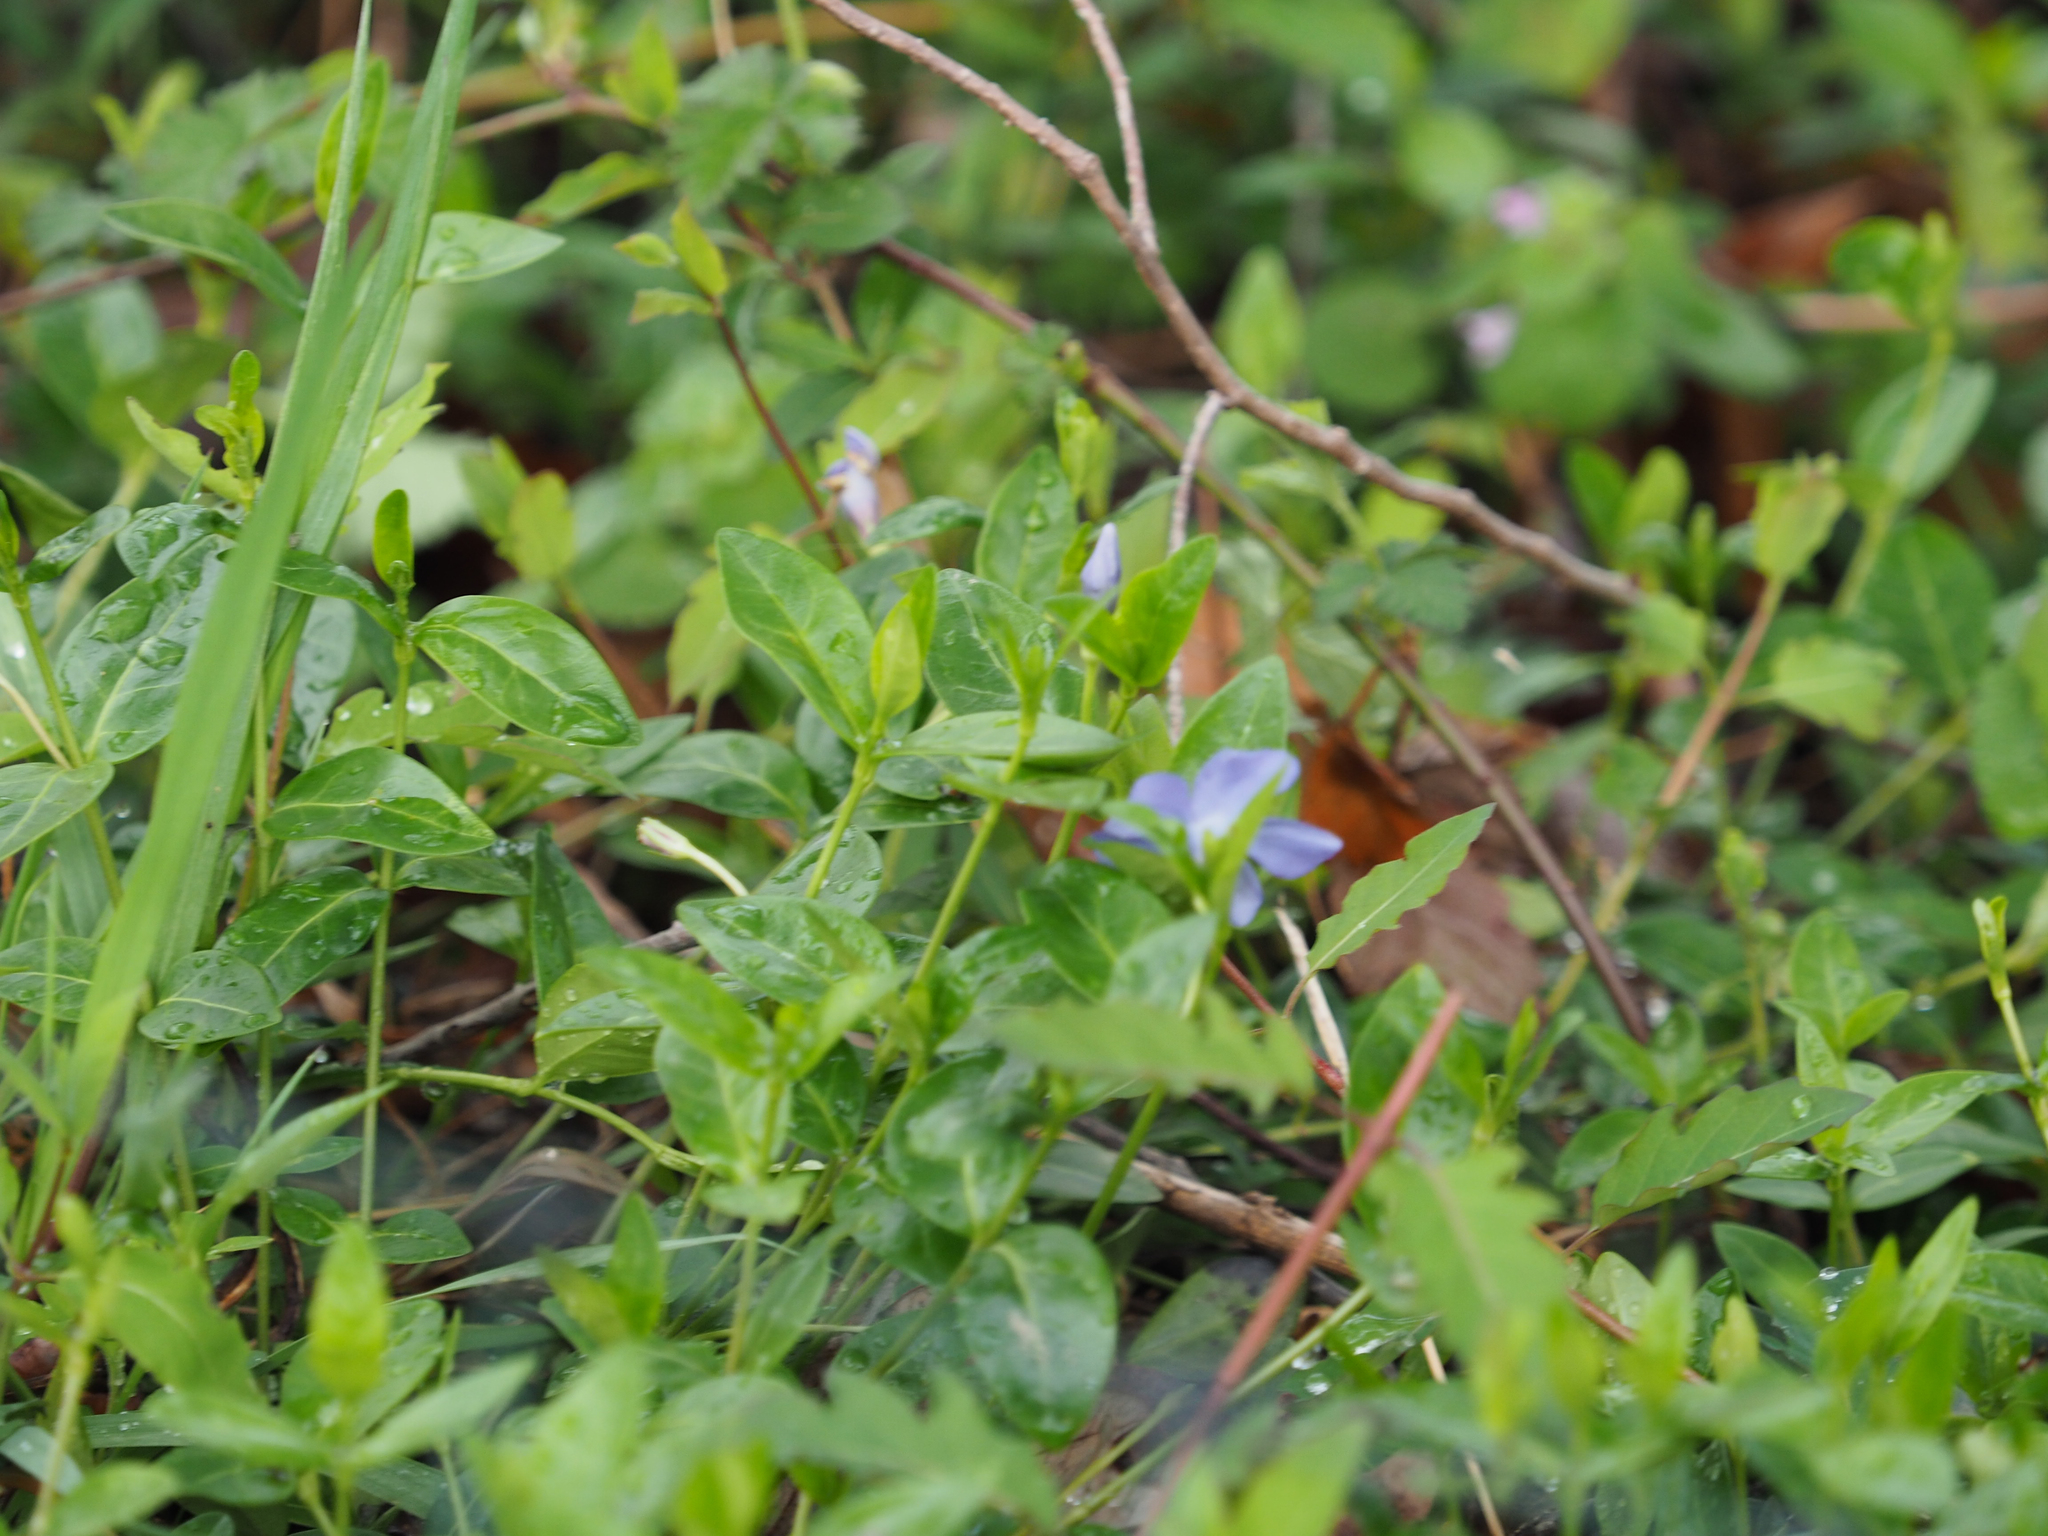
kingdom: Plantae
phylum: Tracheophyta
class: Magnoliopsida
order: Gentianales
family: Apocynaceae
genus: Vinca
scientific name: Vinca minor
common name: Lesser periwinkle
